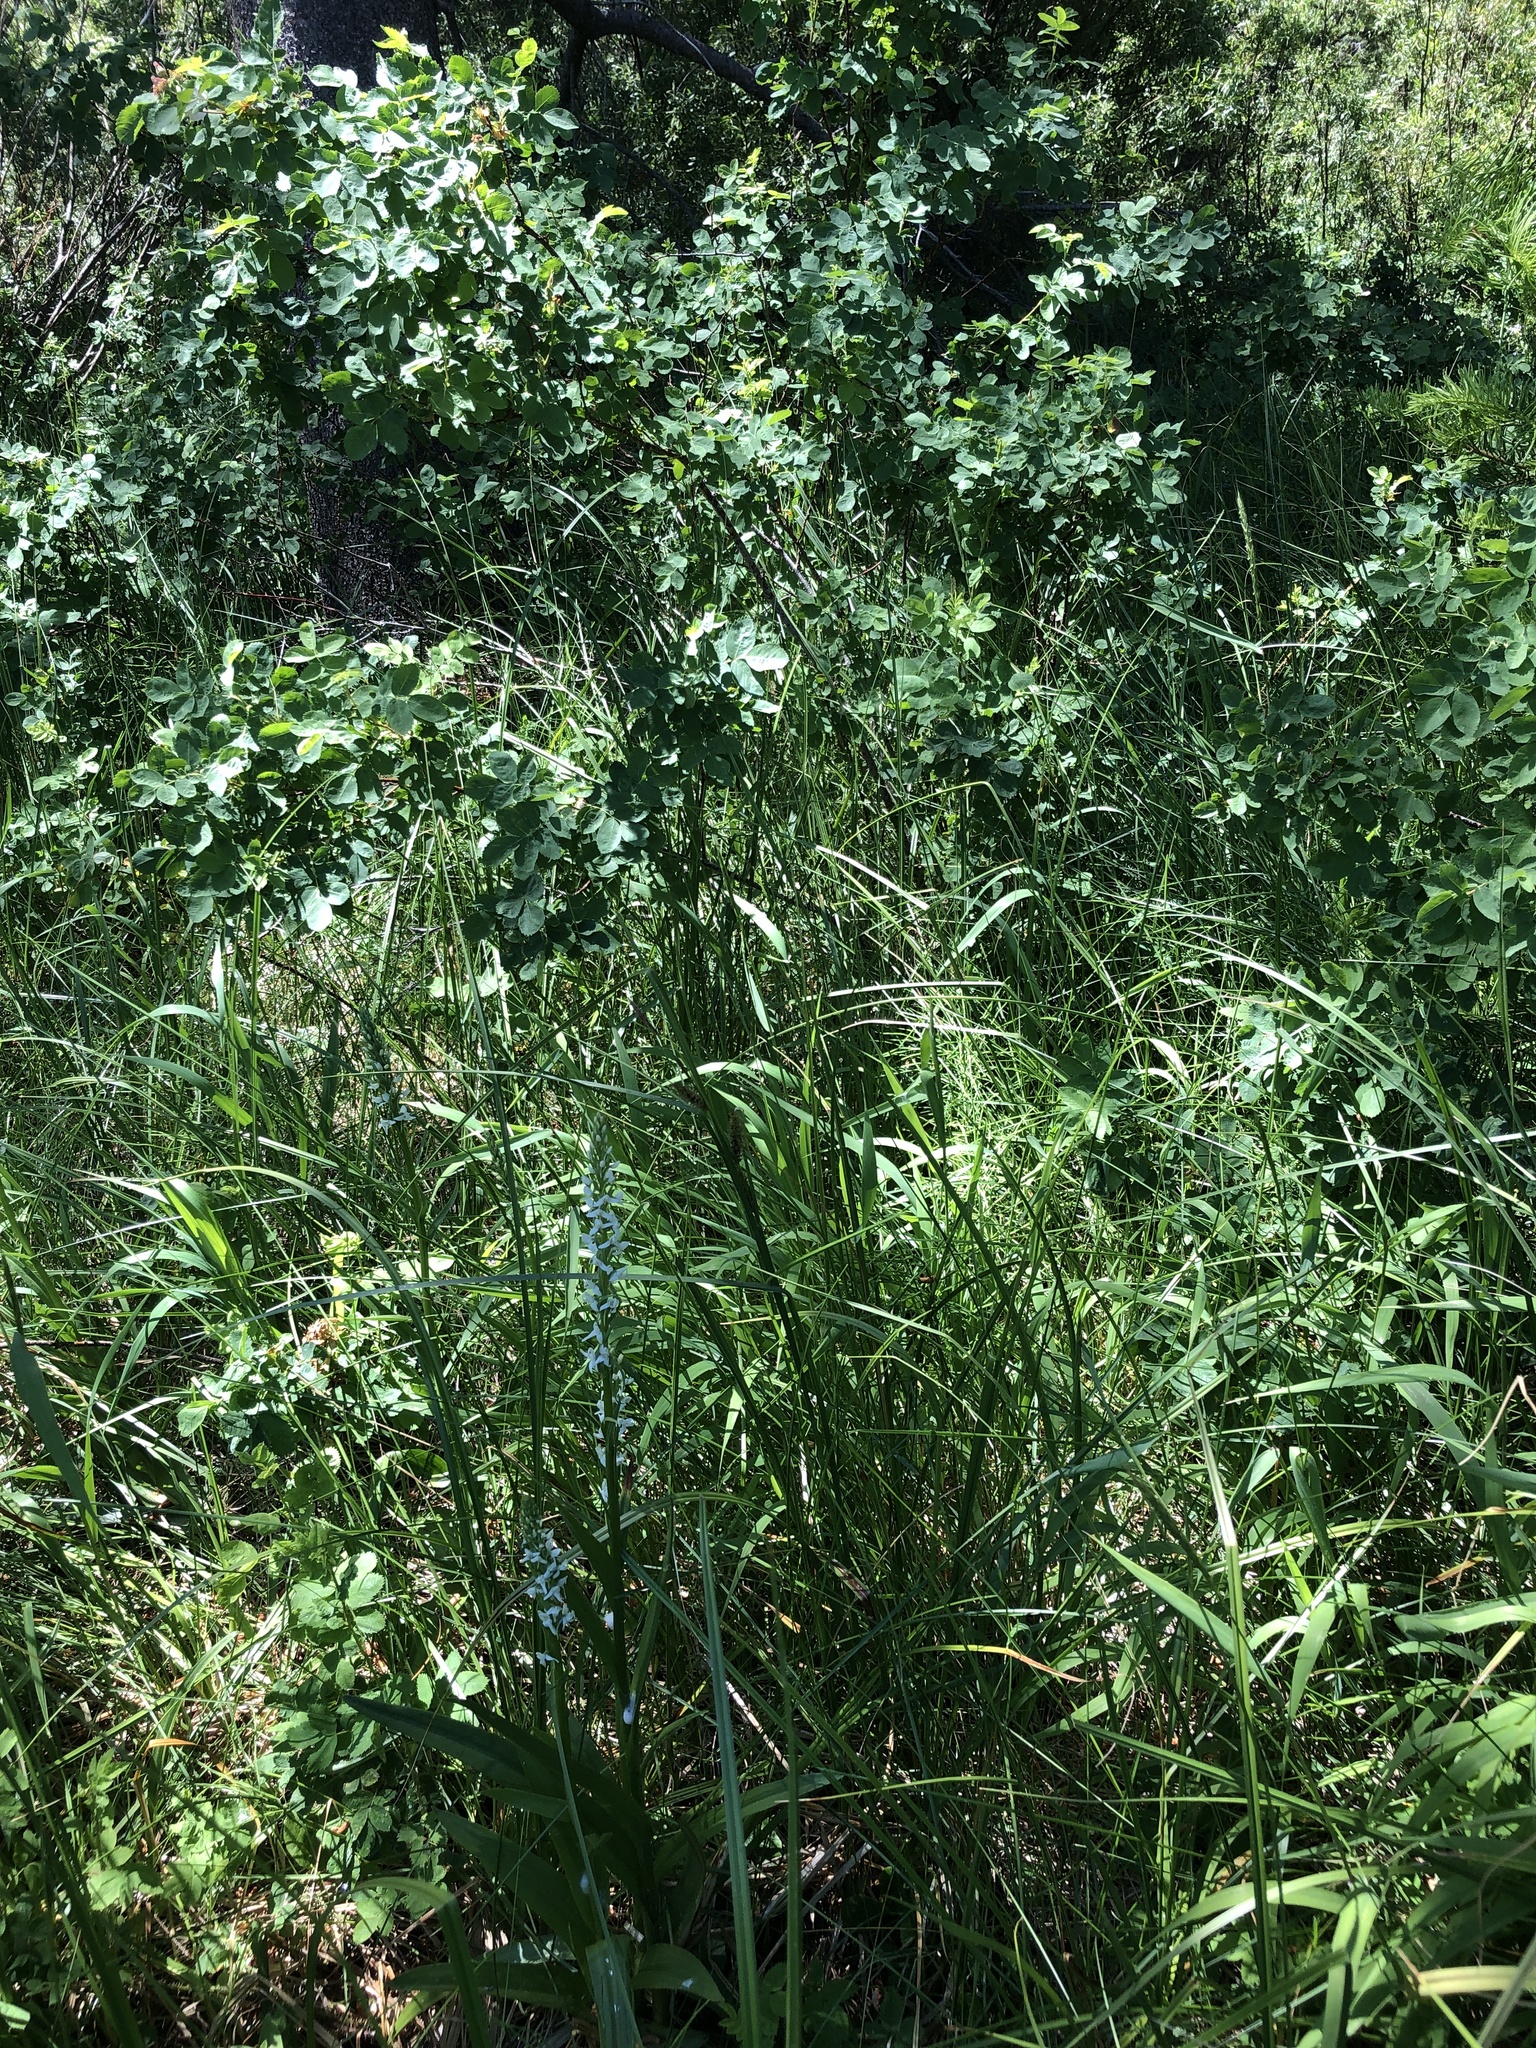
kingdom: Plantae
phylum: Tracheophyta
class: Liliopsida
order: Asparagales
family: Orchidaceae
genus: Platanthera
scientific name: Platanthera dilatata
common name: Bog candles
